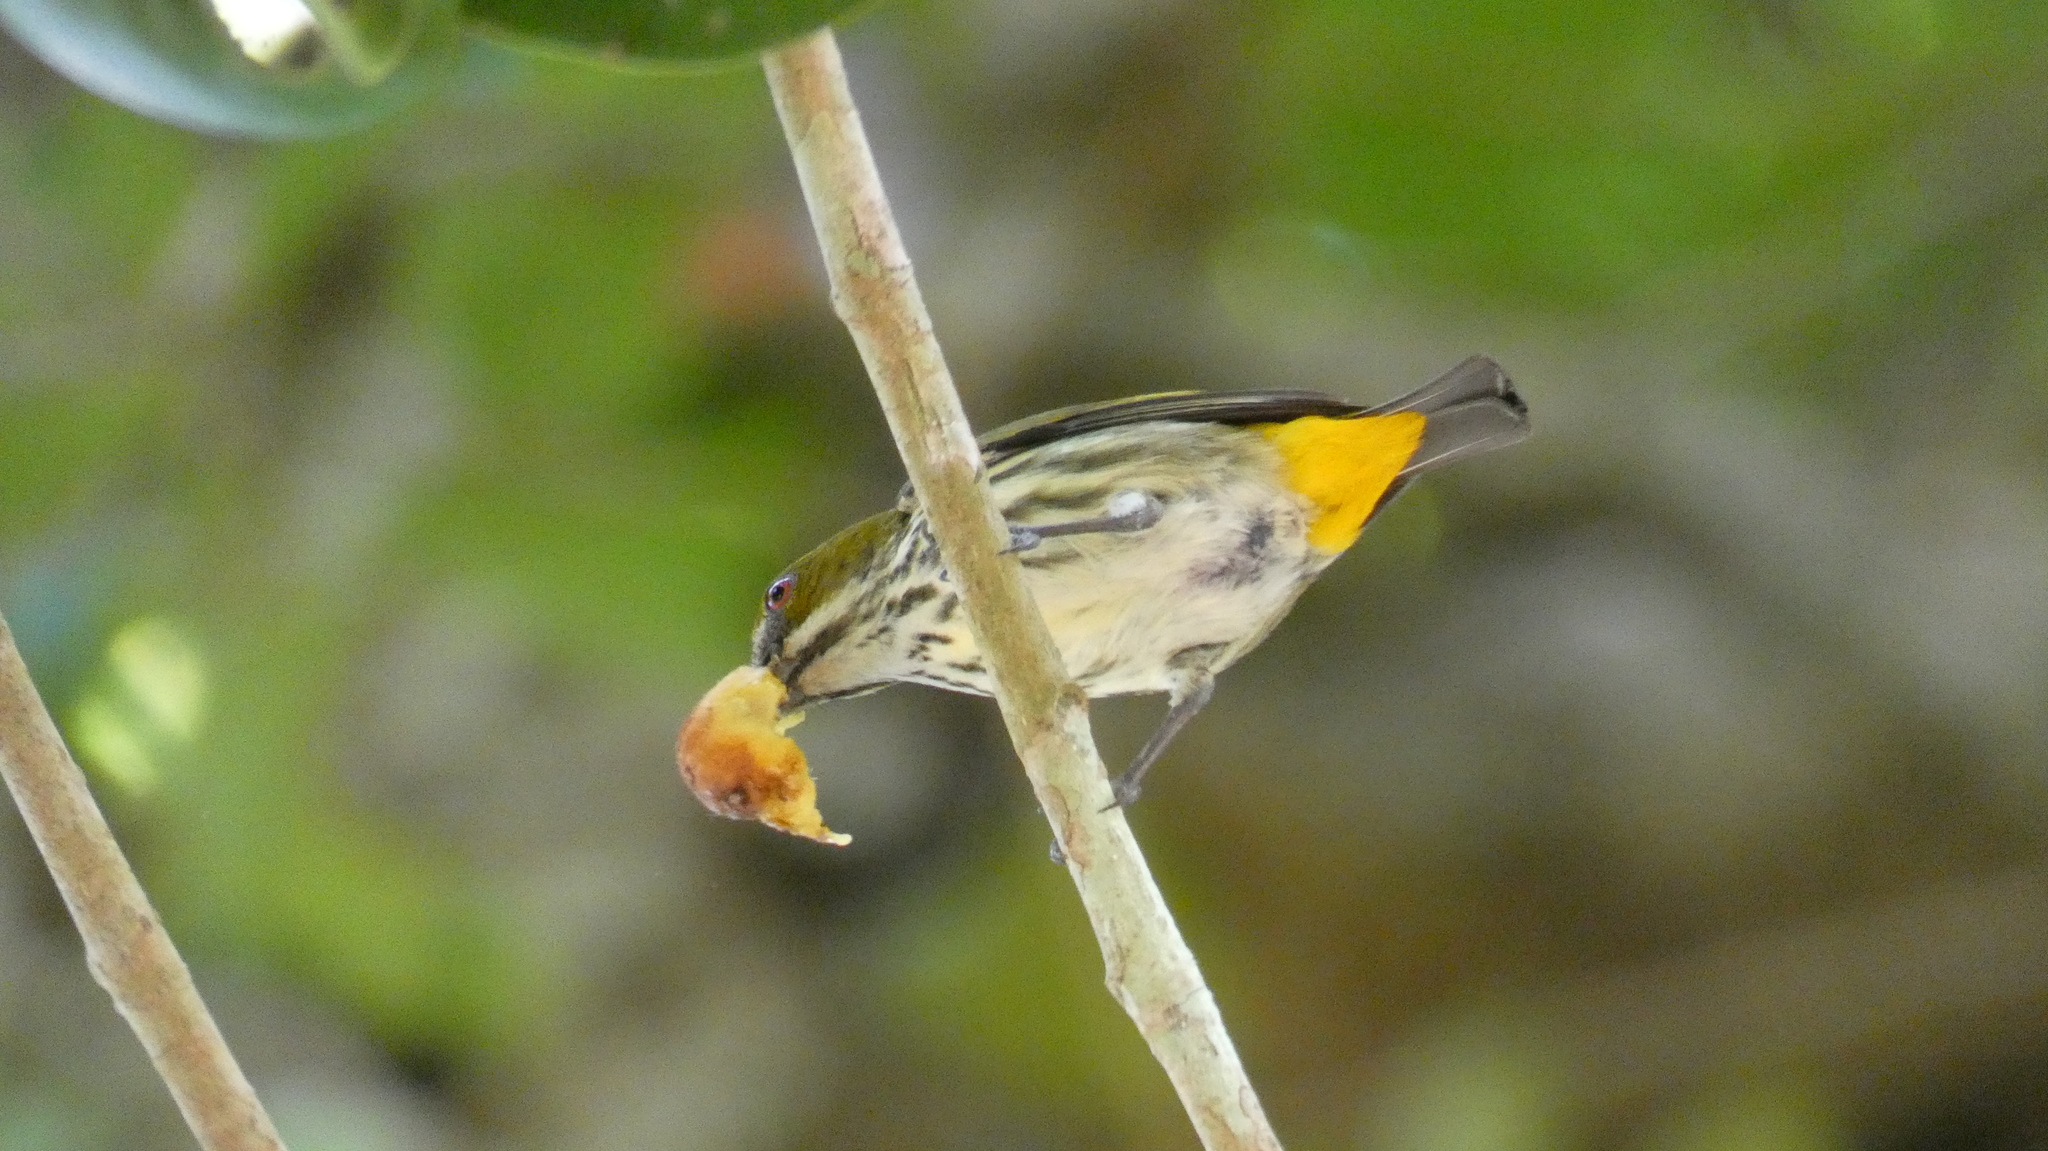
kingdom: Animalia
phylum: Chordata
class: Aves
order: Passeriformes
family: Dicaeidae
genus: Dicaeum
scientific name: Dicaeum chrysorrheum
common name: Yellow-vented flowerpecker
